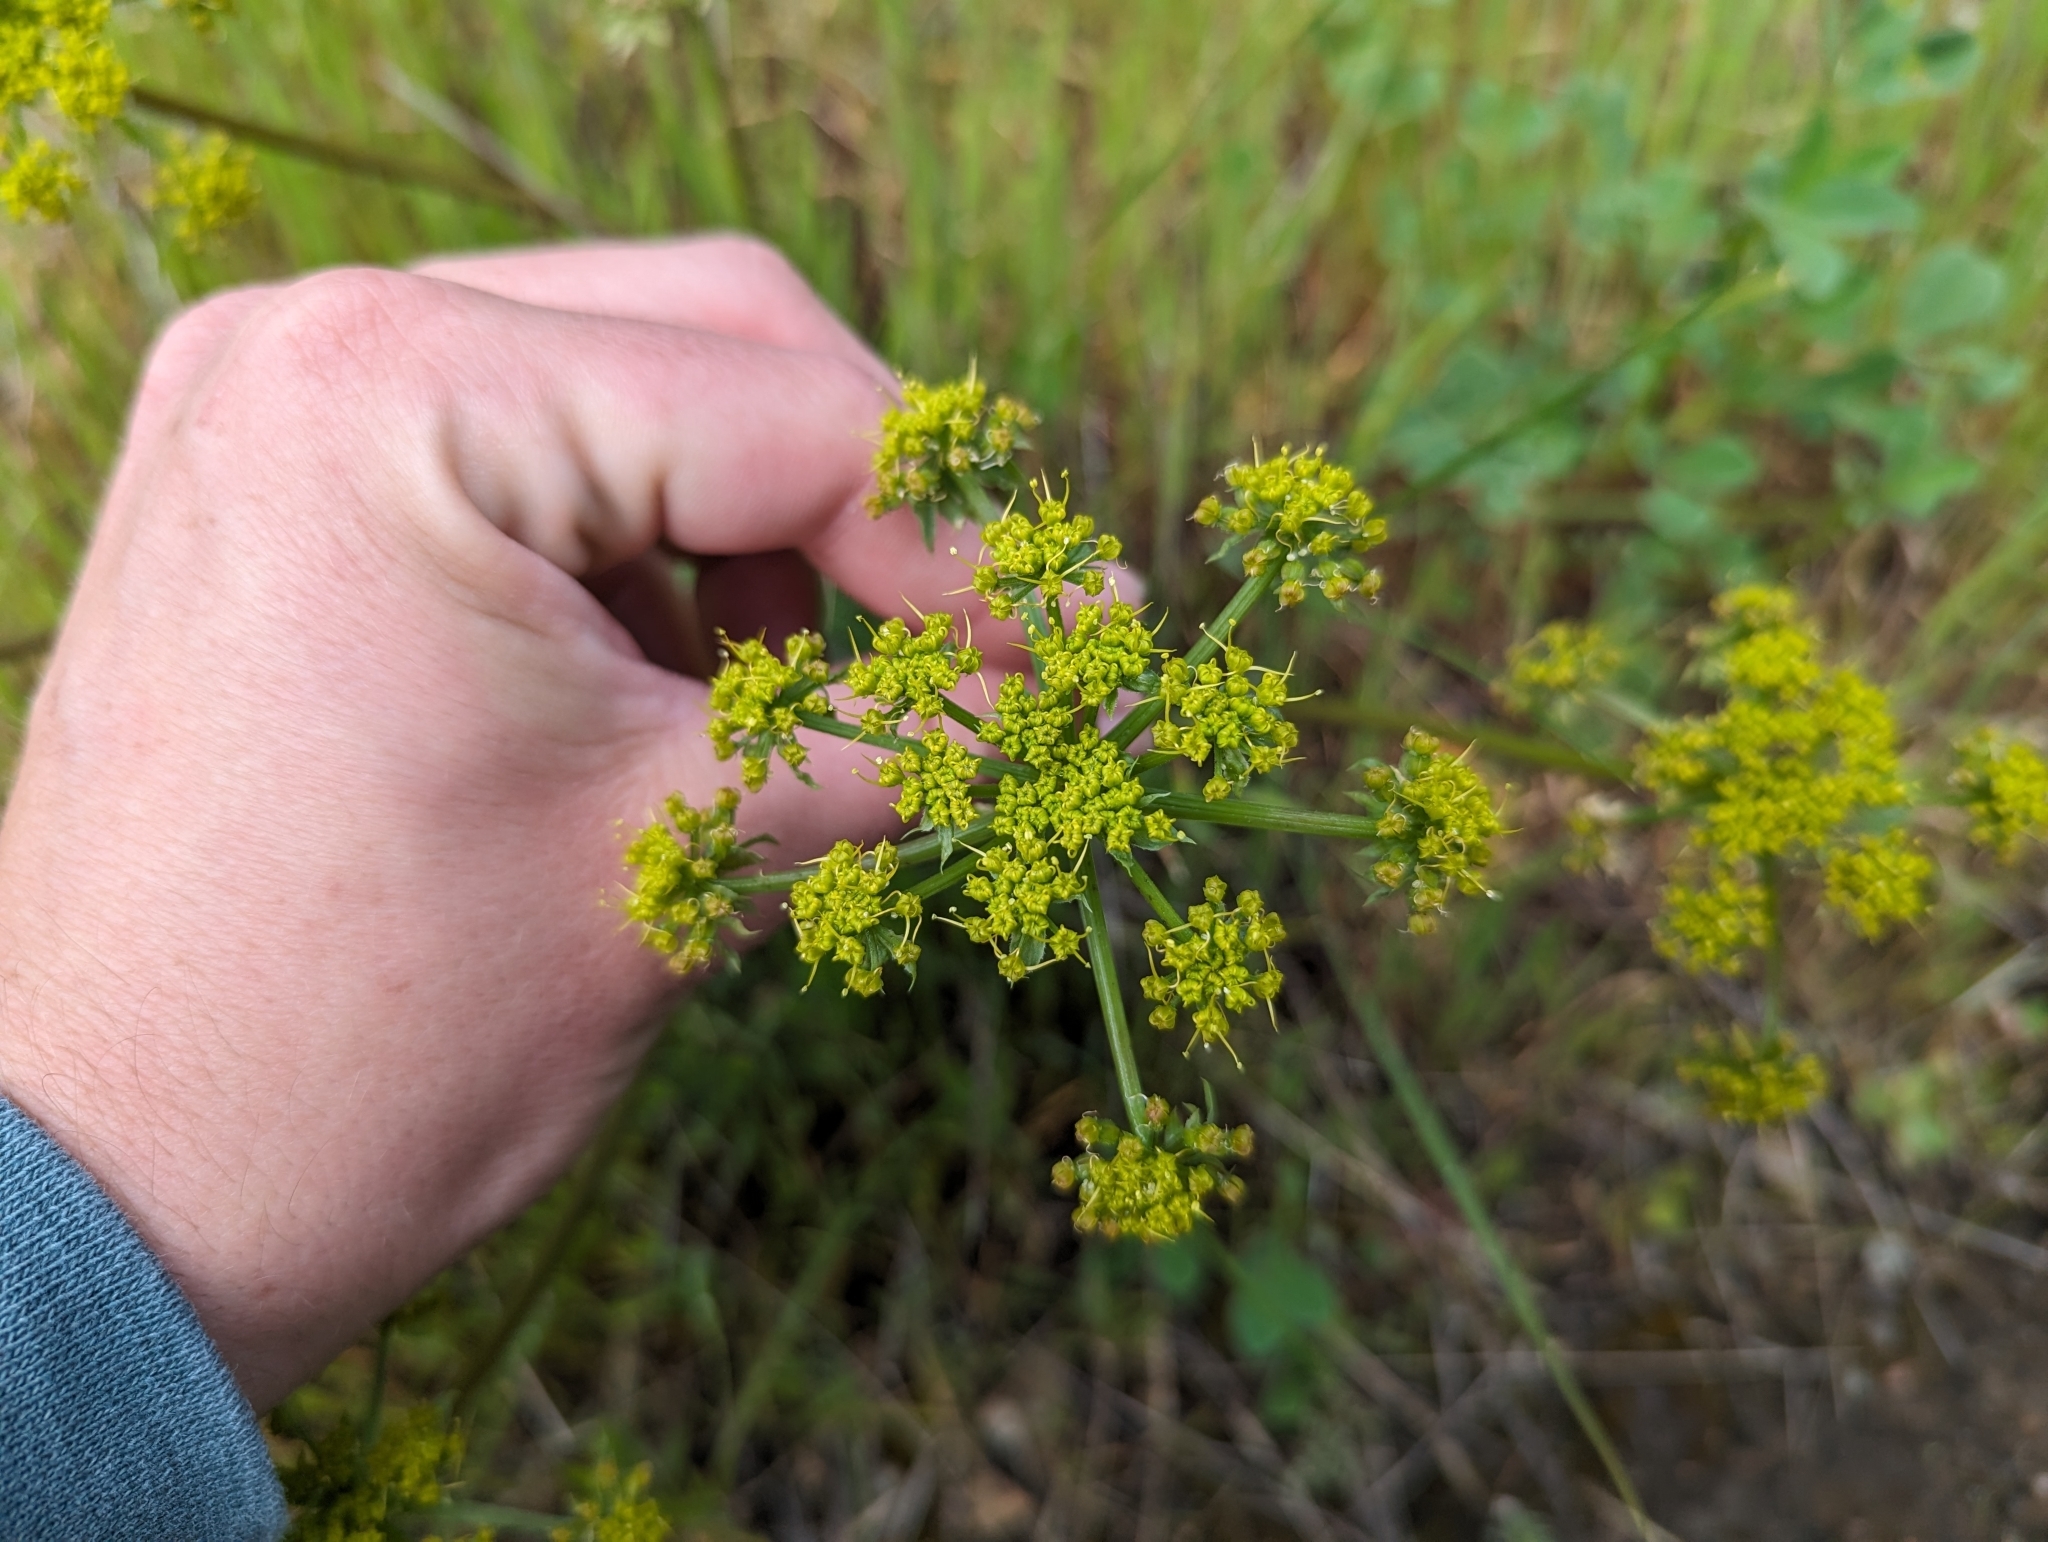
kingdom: Plantae
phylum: Tracheophyta
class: Magnoliopsida
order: Apiales
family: Apiaceae
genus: Lomatium
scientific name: Lomatium dasycarpum
